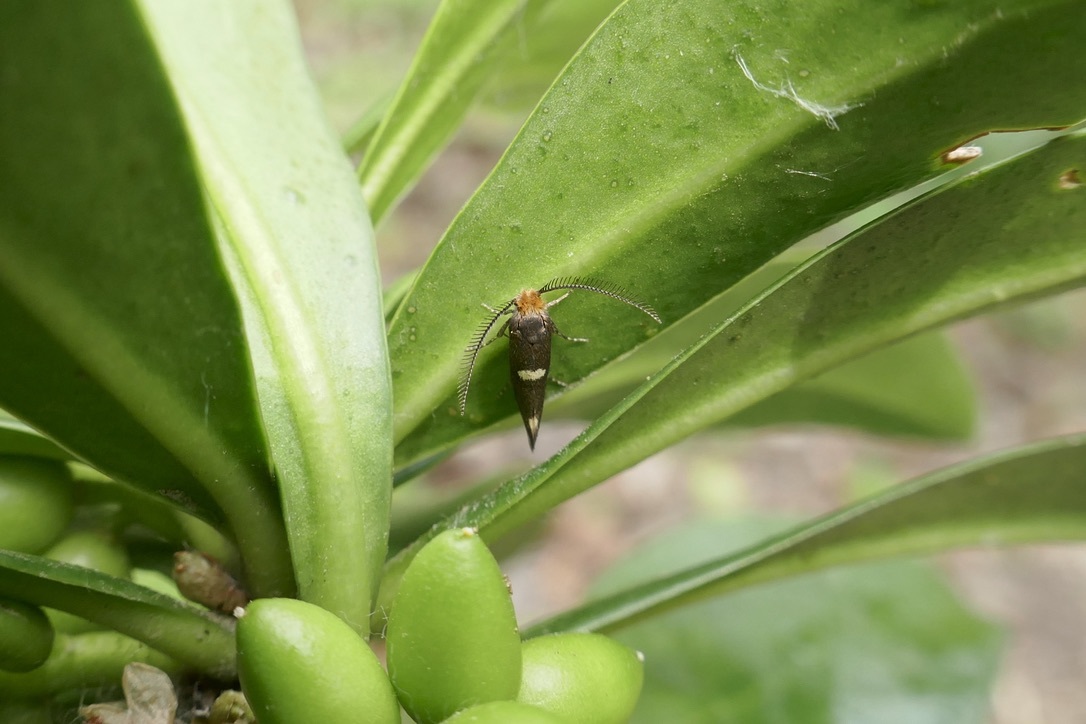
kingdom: Animalia
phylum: Arthropoda
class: Insecta
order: Lepidoptera
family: Incurvariidae
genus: Incurvaria
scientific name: Incurvaria masculella
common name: Feathered leaf-cutter
